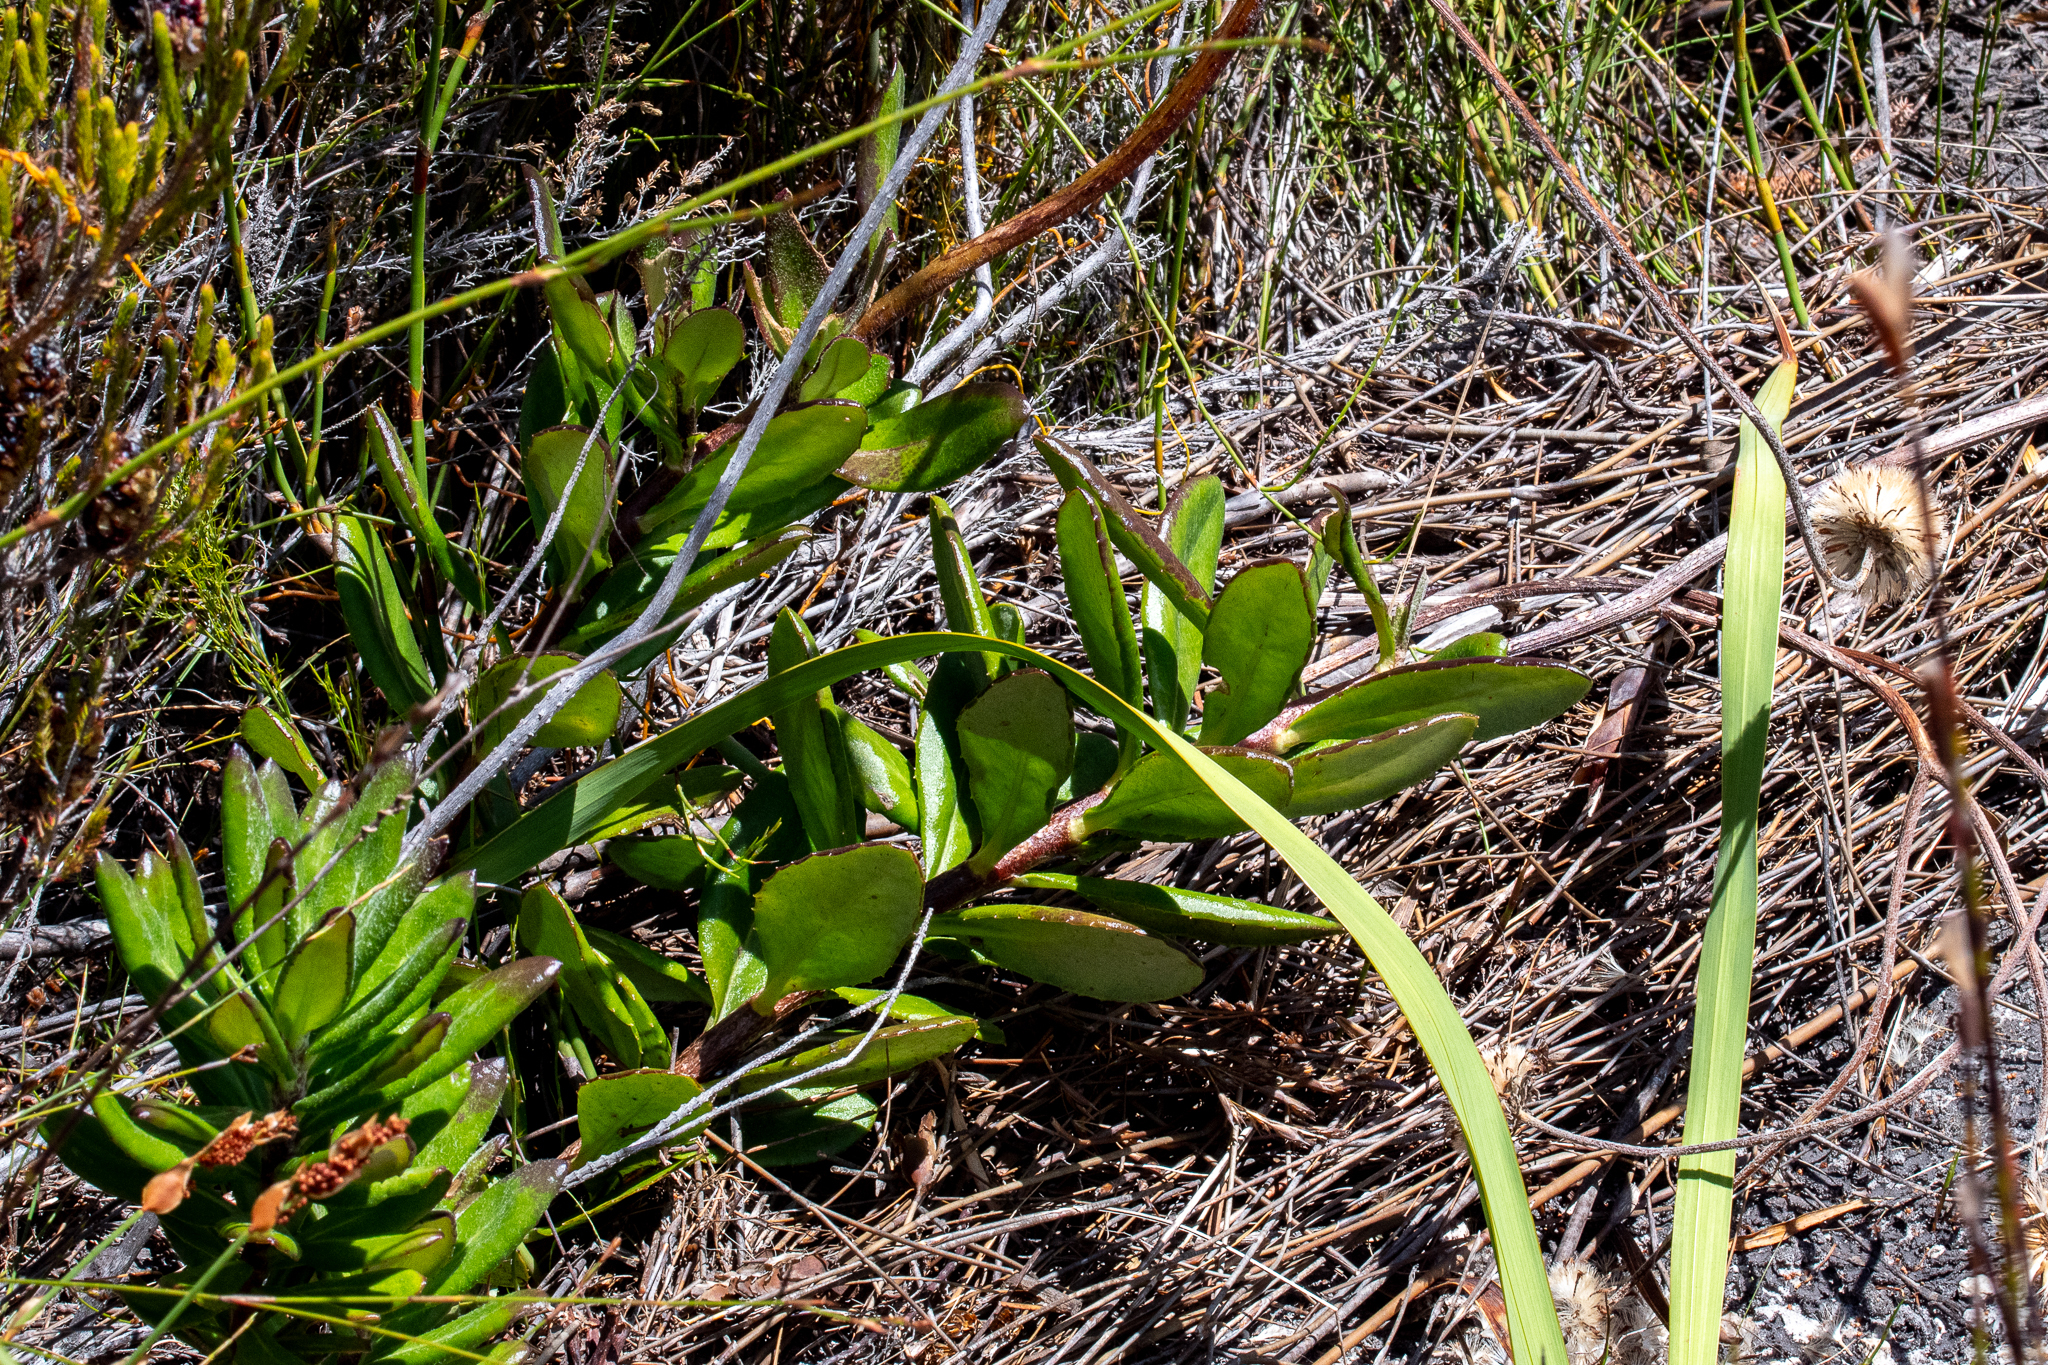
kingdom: Plantae
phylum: Tracheophyta
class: Magnoliopsida
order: Asterales
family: Asteraceae
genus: Capelio
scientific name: Capelio tabularis
